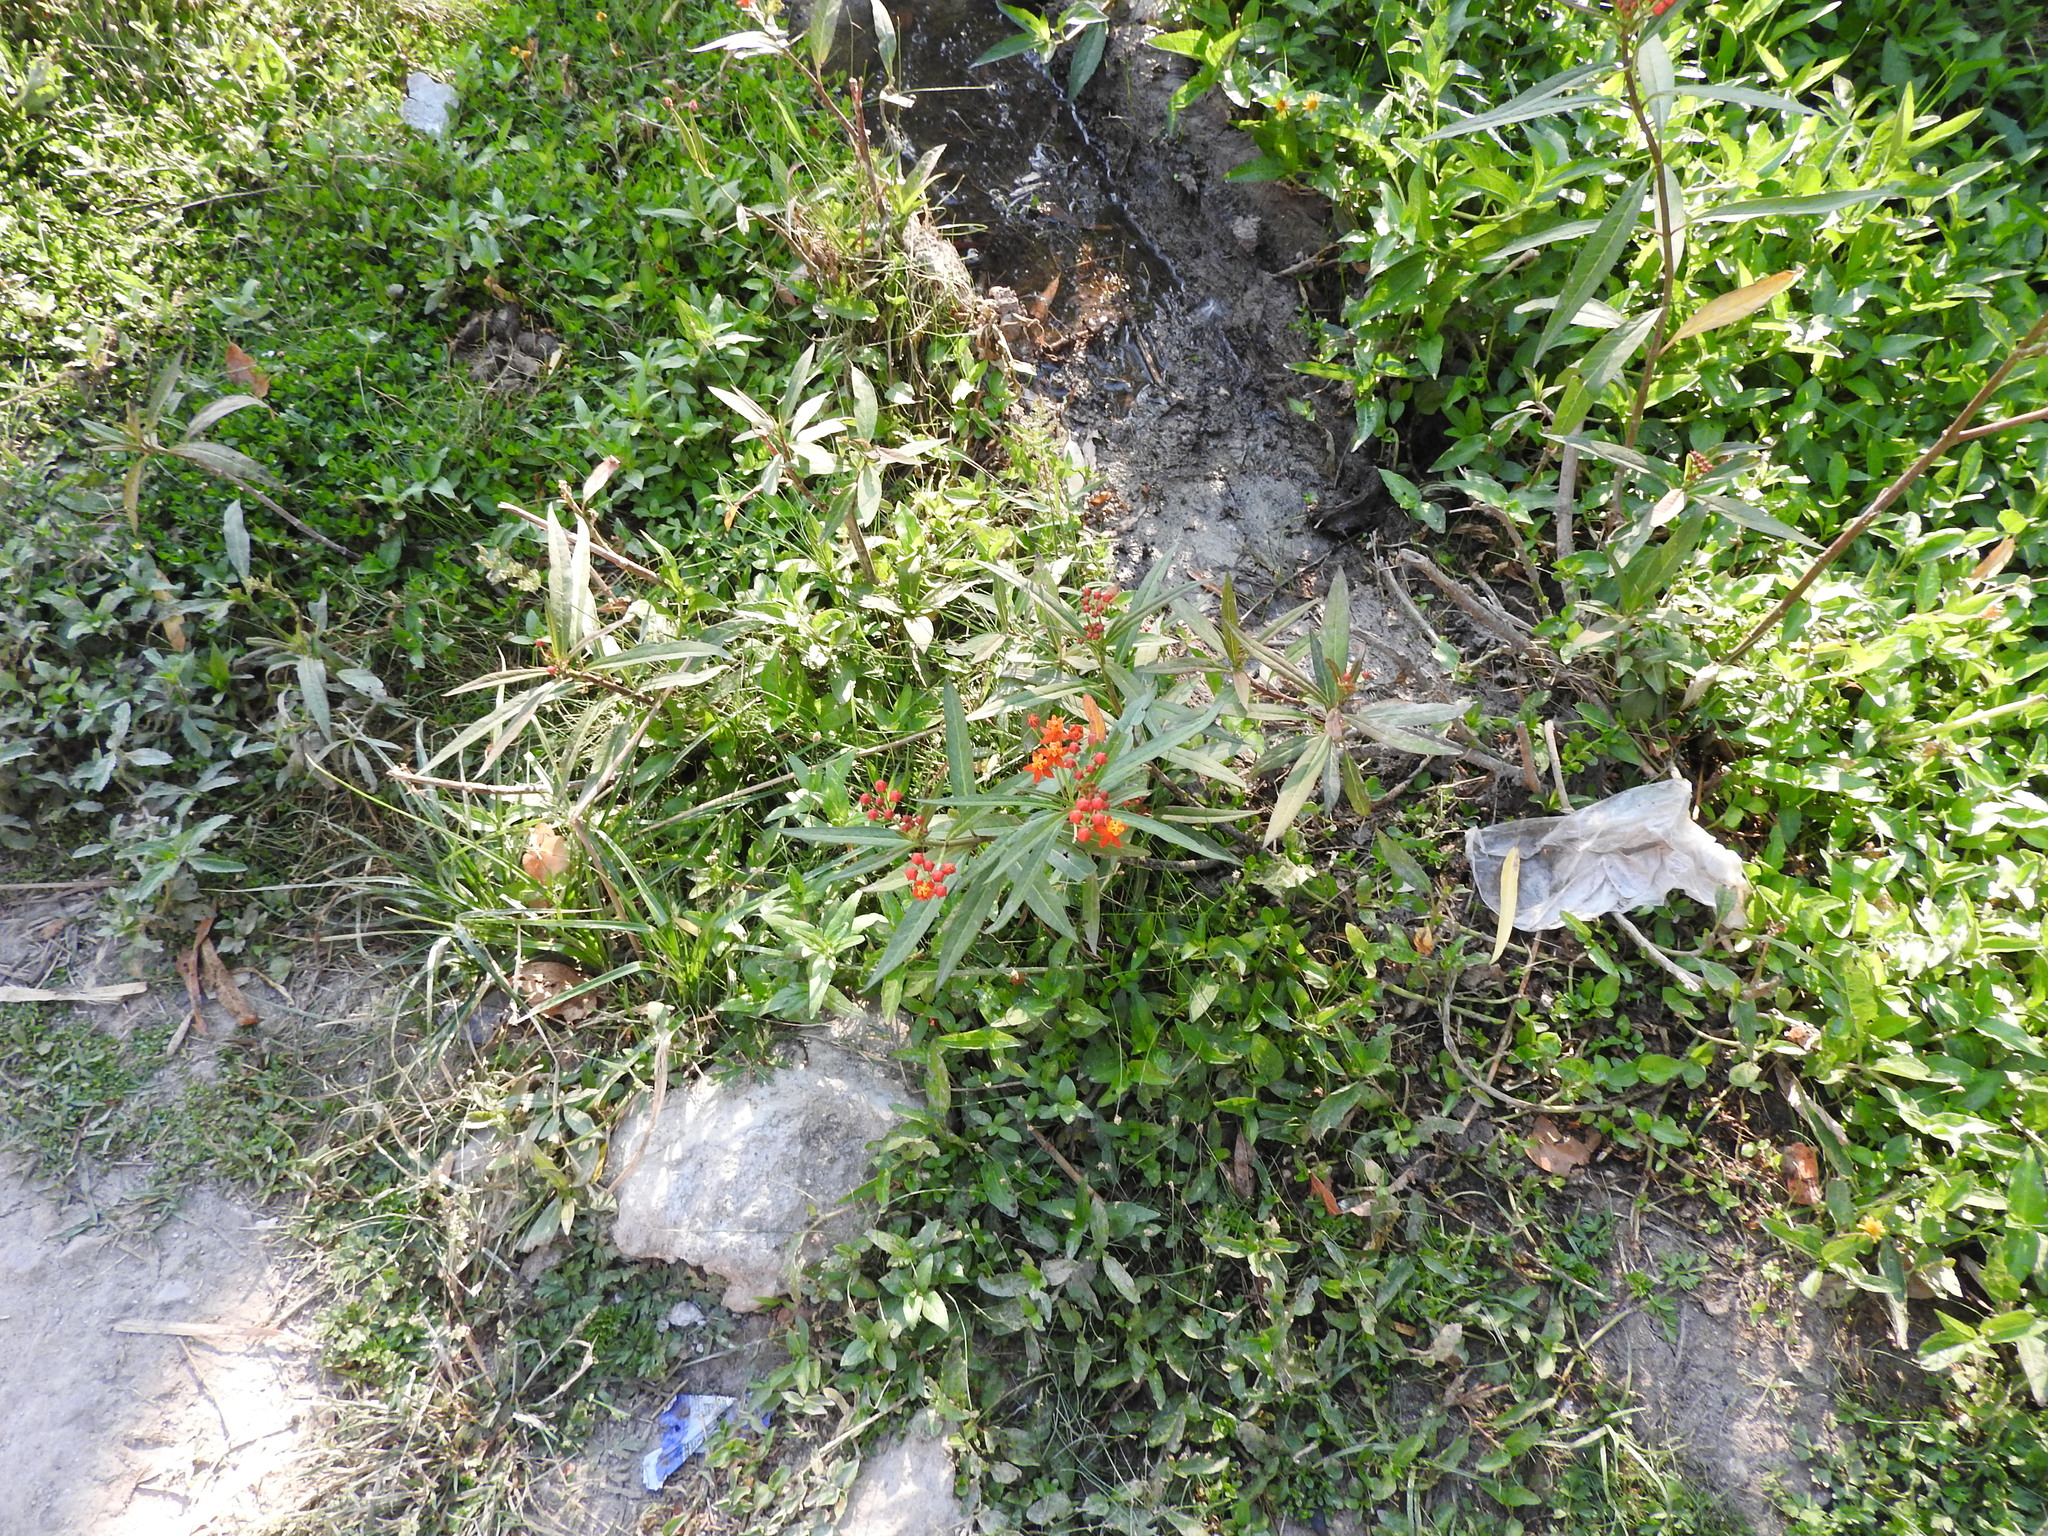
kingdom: Plantae
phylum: Tracheophyta
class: Magnoliopsida
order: Gentianales
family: Apocynaceae
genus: Asclepias
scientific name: Asclepias curassavica
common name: Bloodflower
